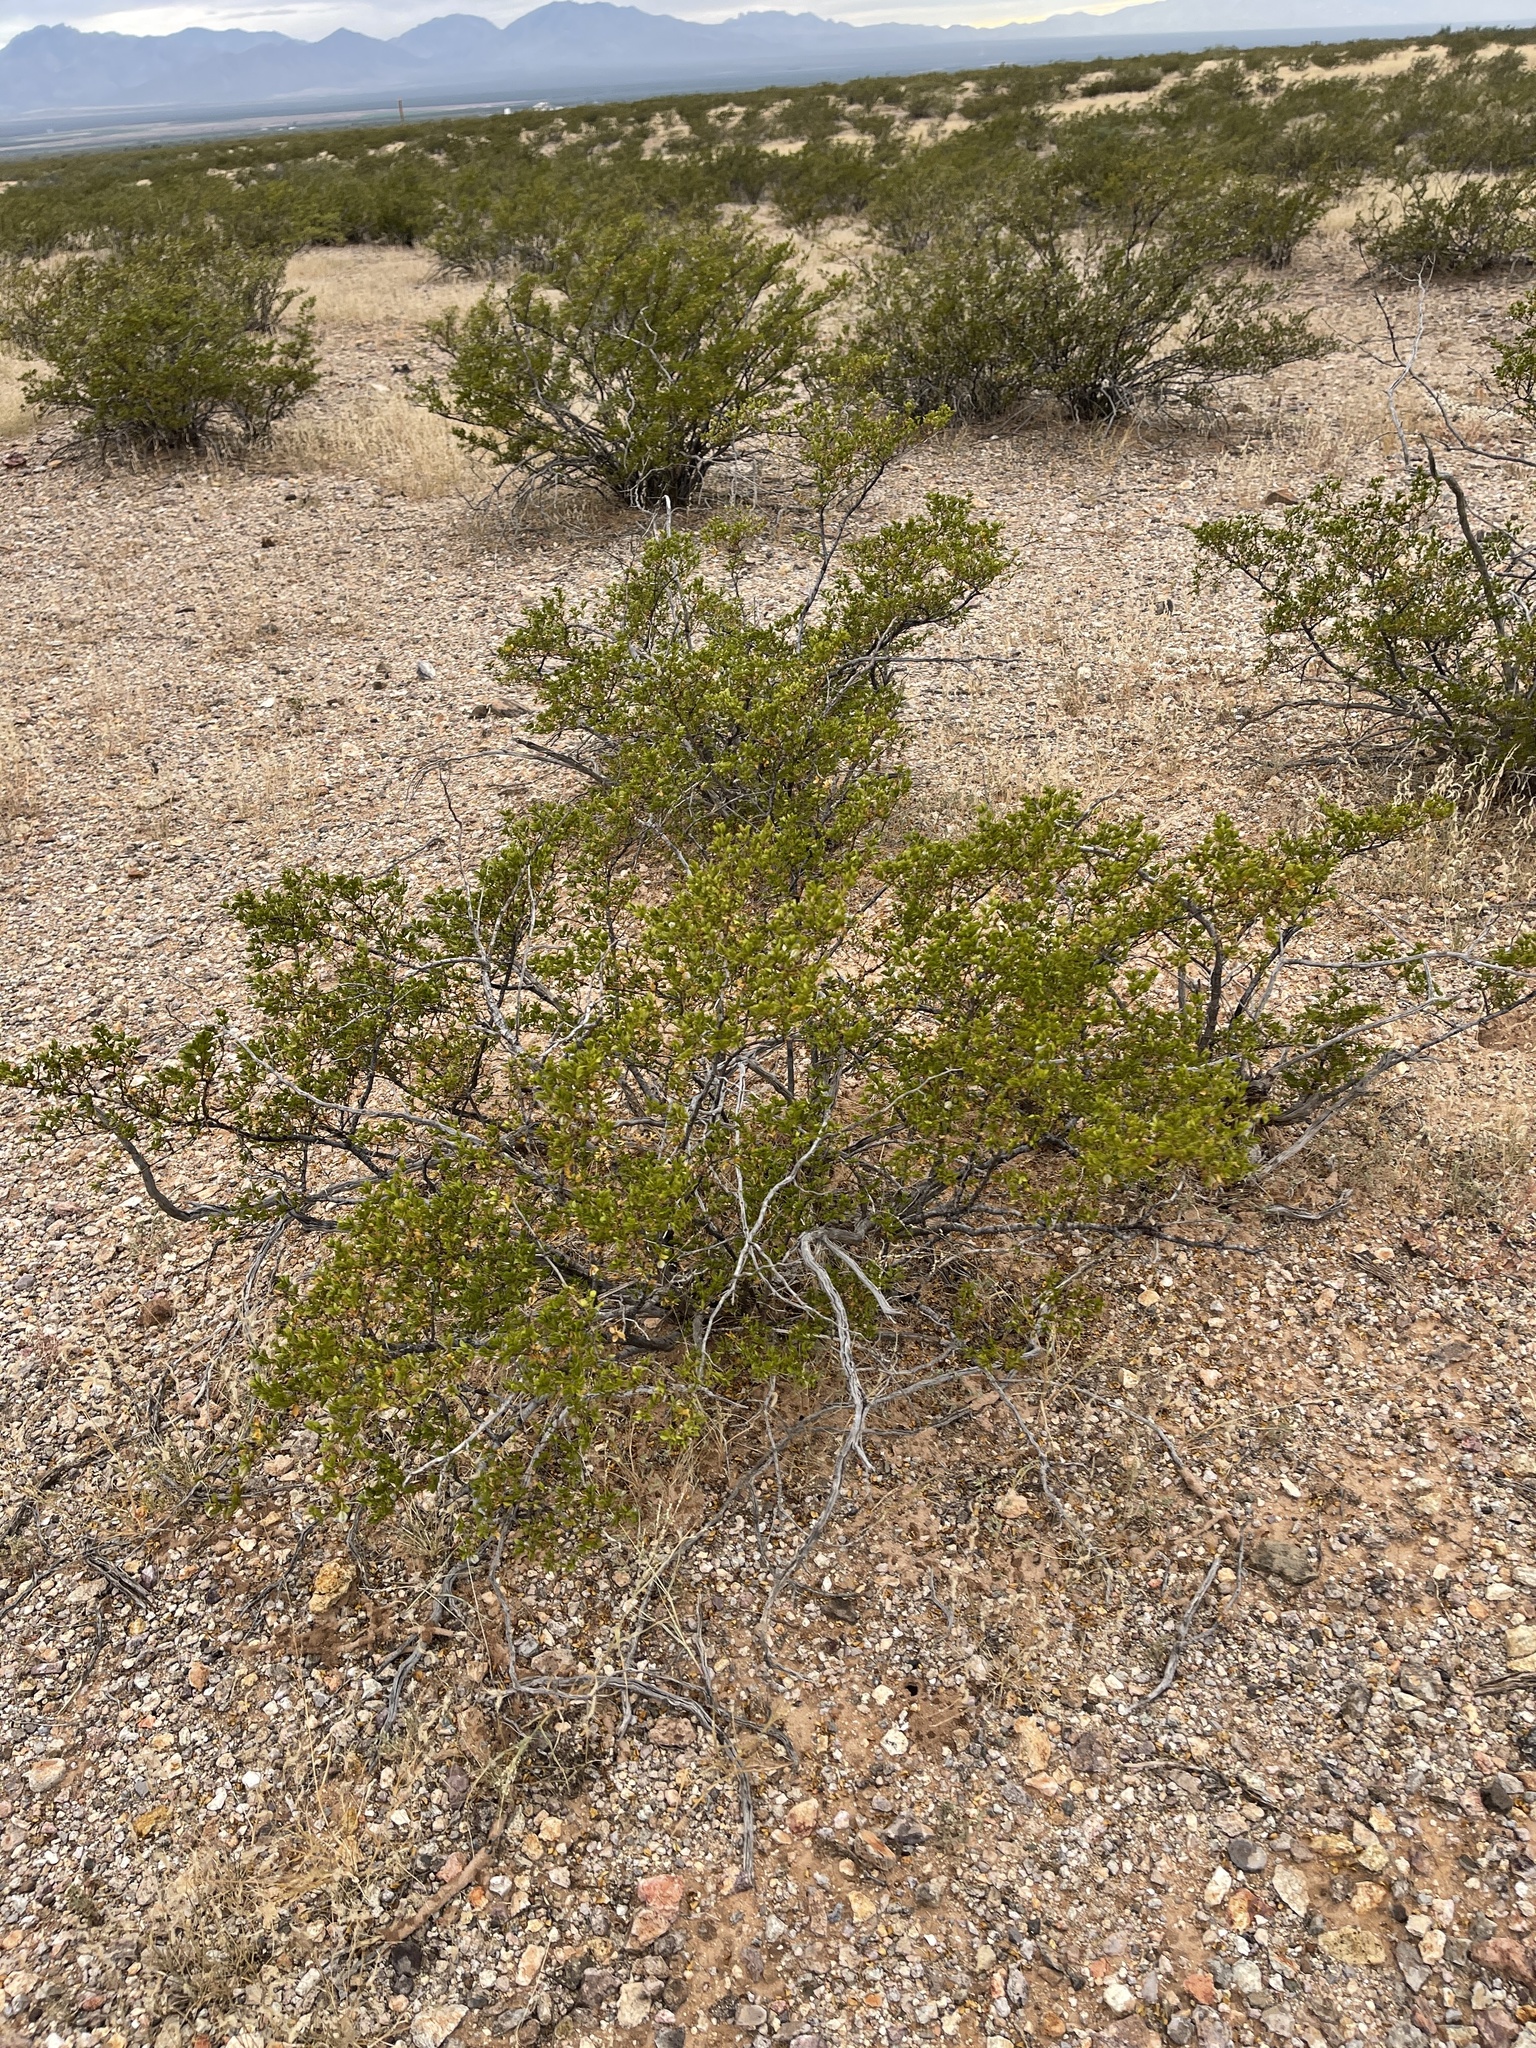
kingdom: Plantae
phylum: Tracheophyta
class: Magnoliopsida
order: Zygophyllales
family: Zygophyllaceae
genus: Larrea
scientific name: Larrea tridentata
